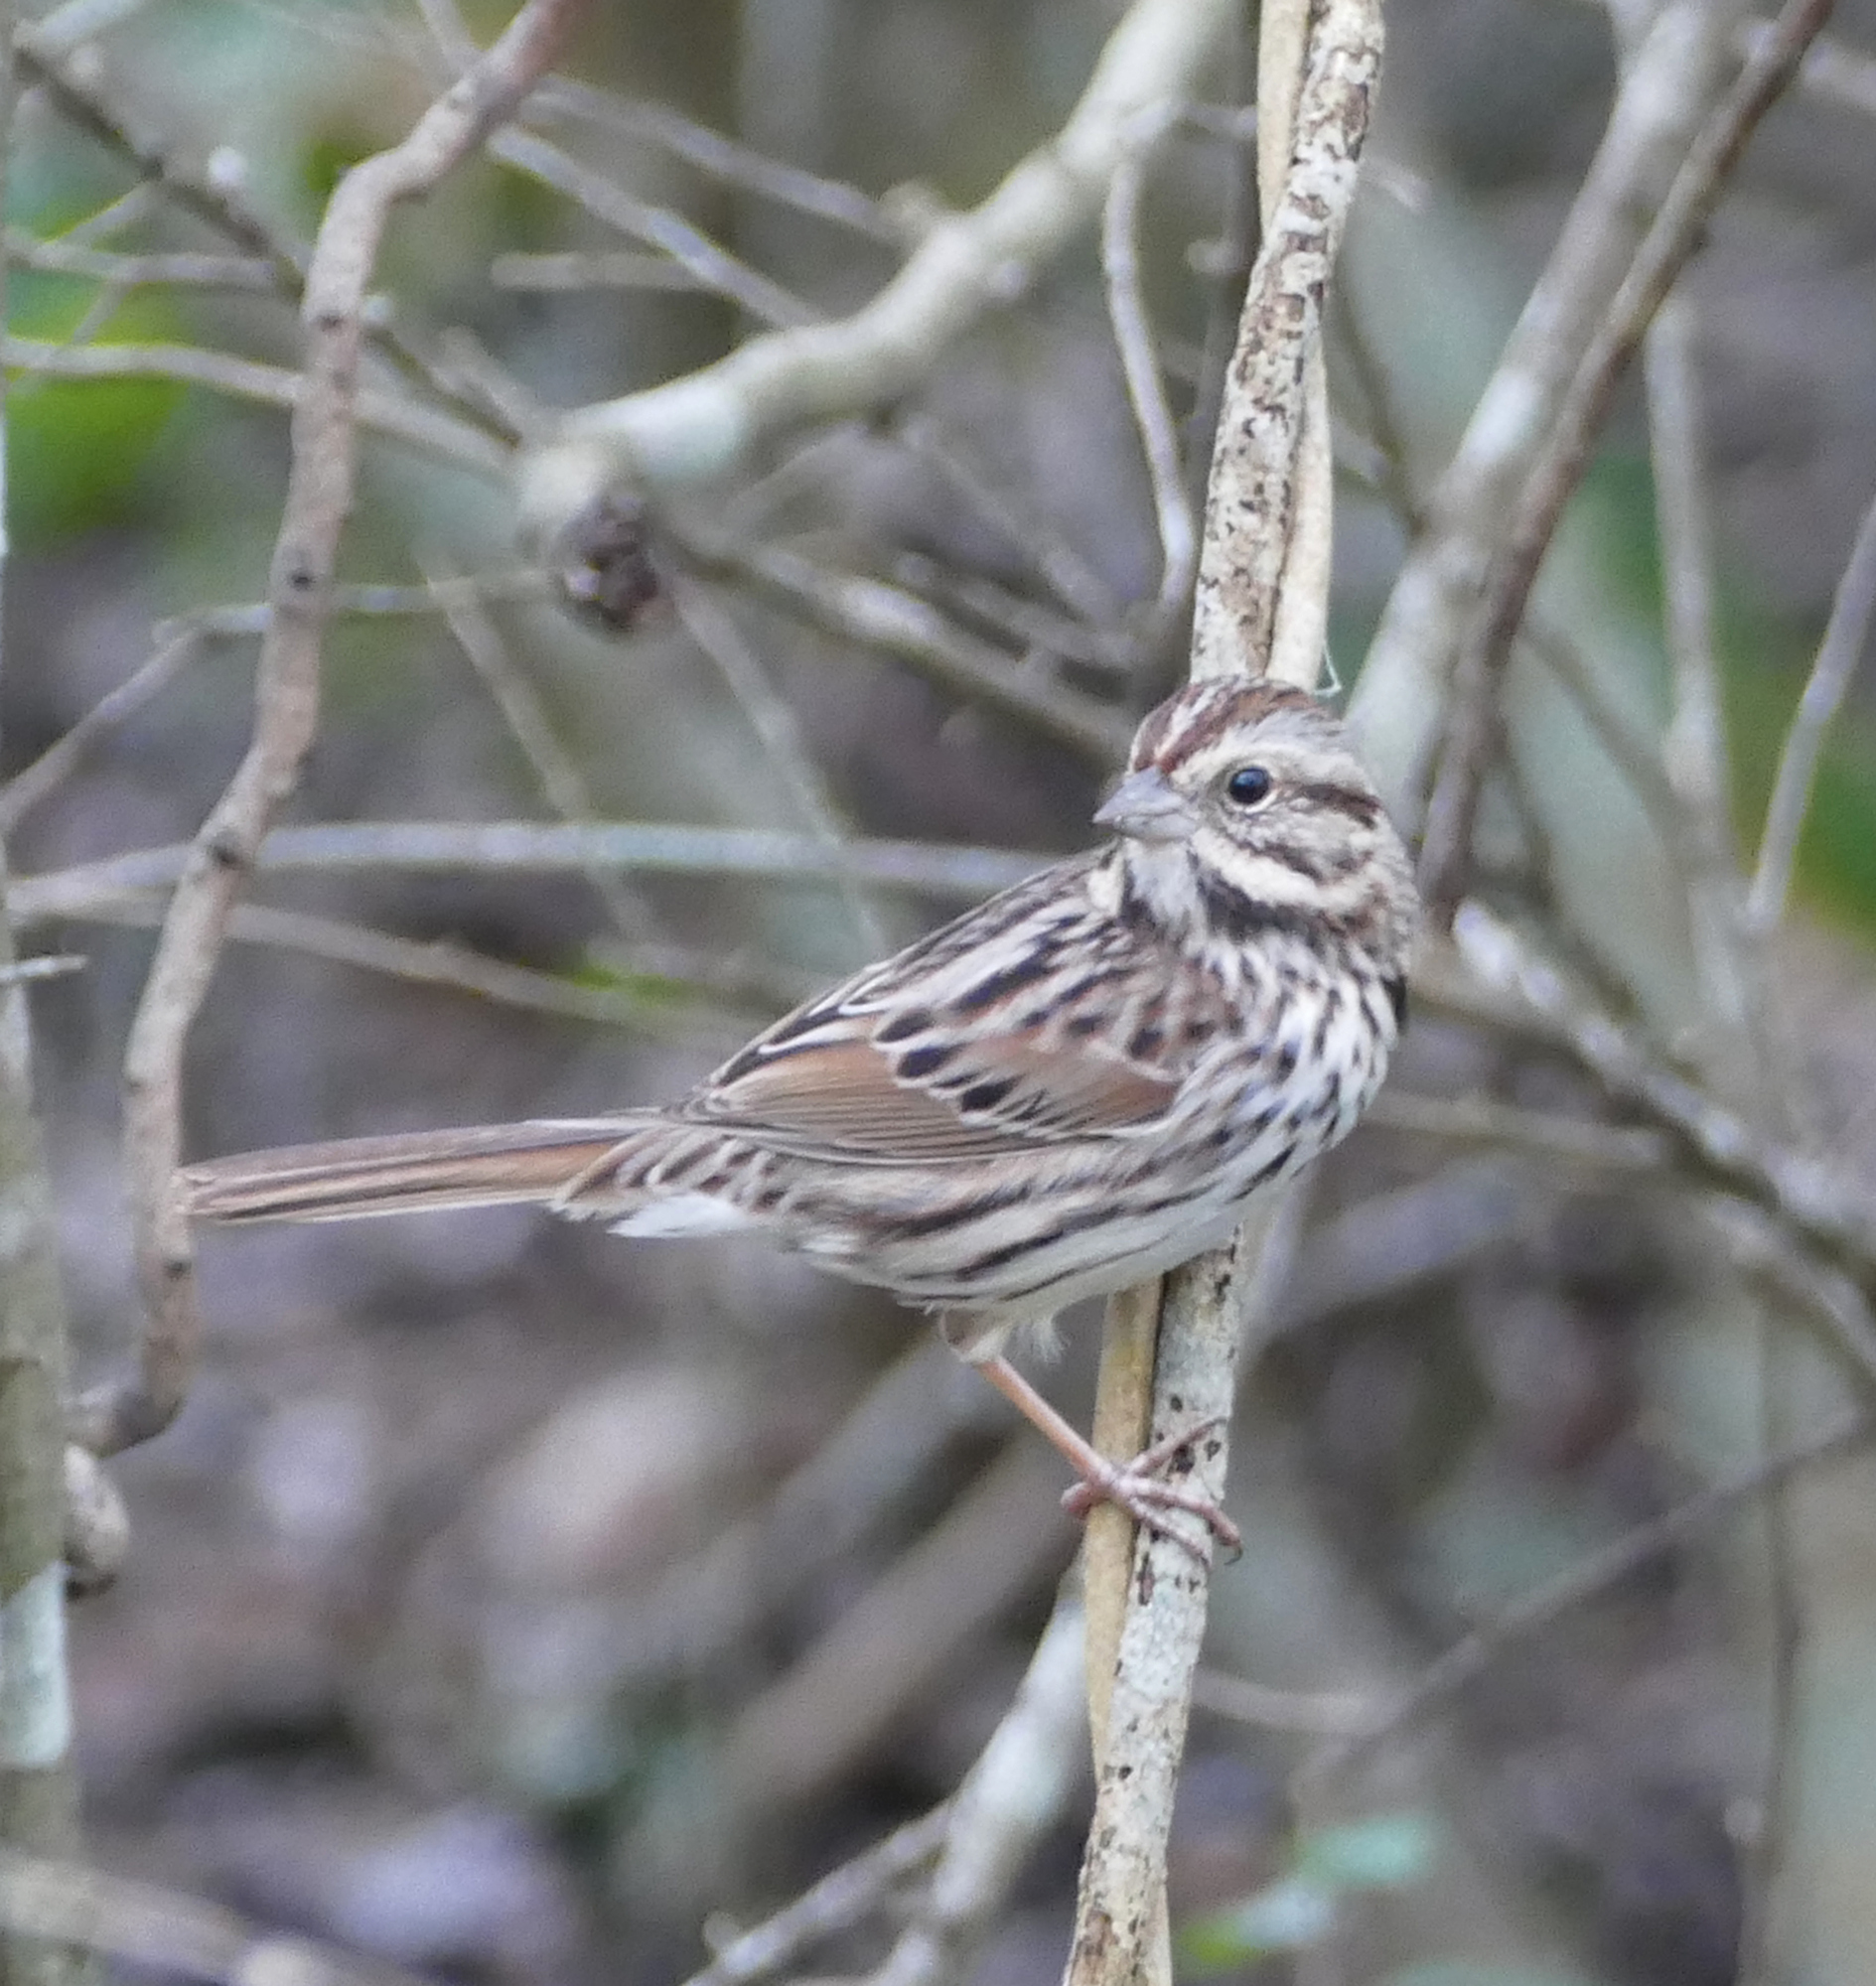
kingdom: Animalia
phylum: Chordata
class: Aves
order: Passeriformes
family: Passerellidae
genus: Melospiza
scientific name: Melospiza melodia
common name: Song sparrow
